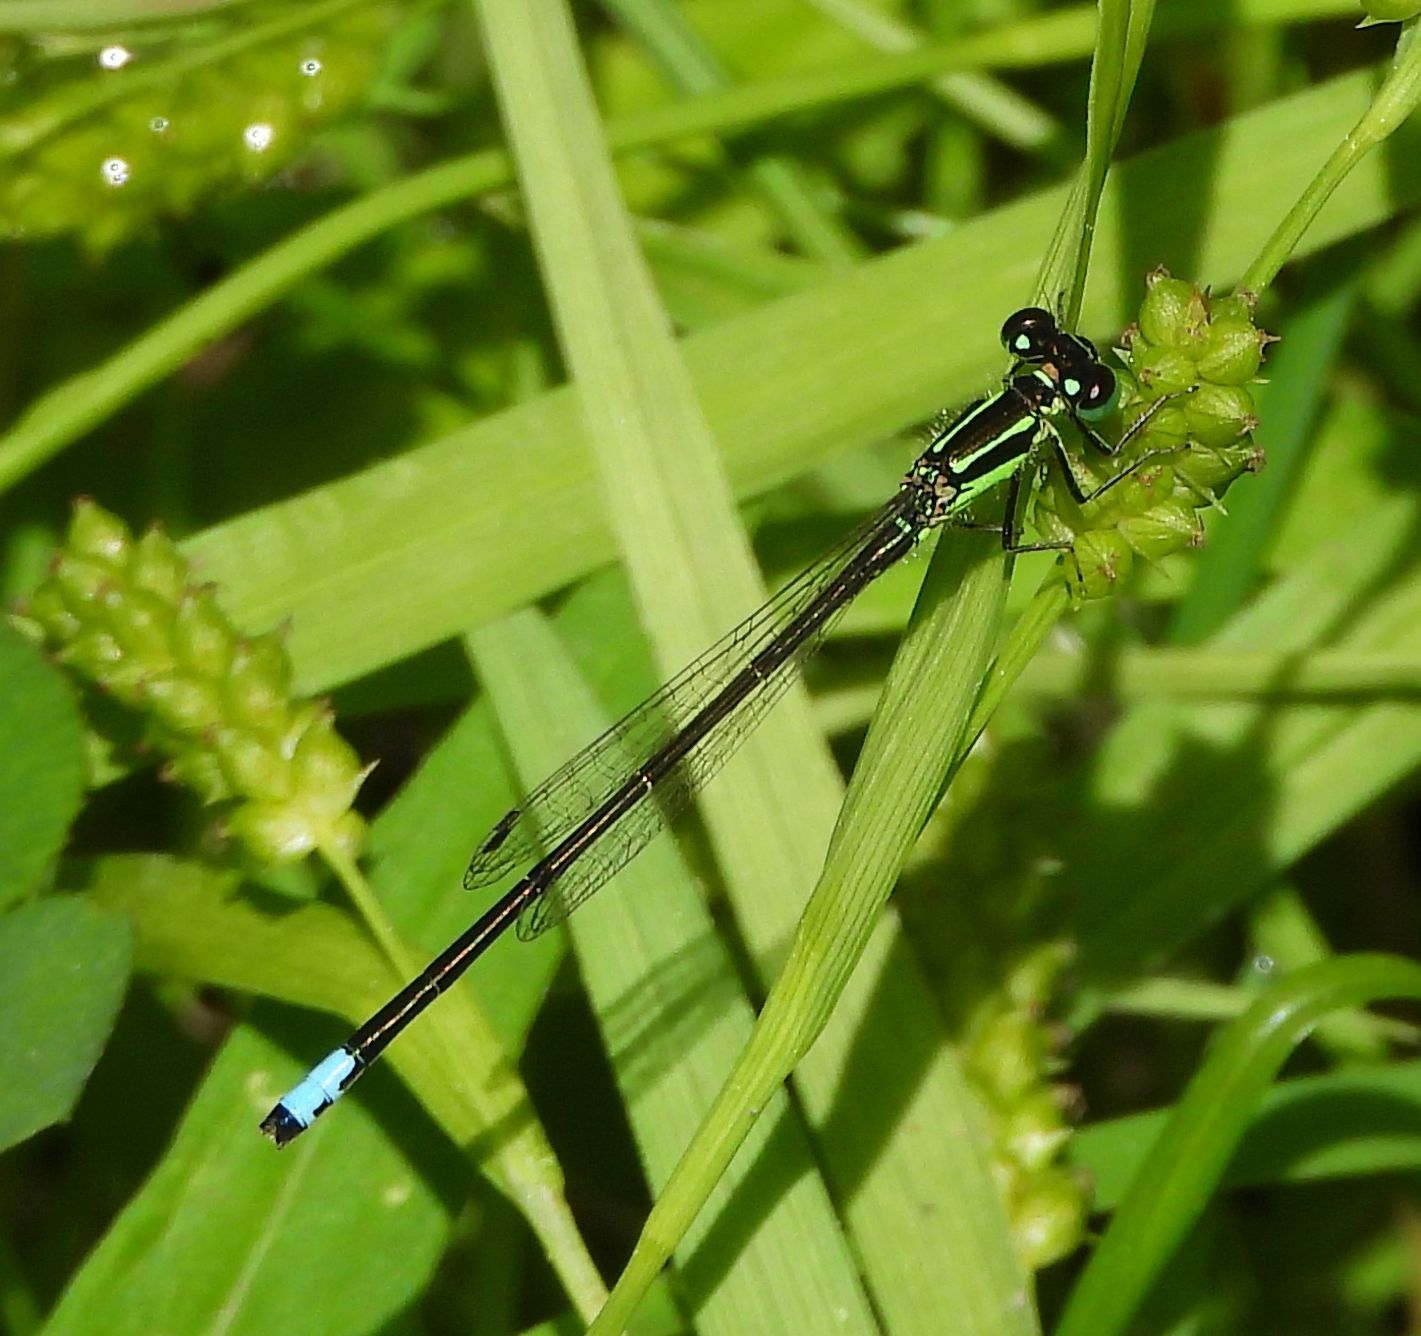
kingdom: Animalia
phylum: Arthropoda
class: Insecta
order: Odonata
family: Coenagrionidae
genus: Ischnura
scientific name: Ischnura verticalis
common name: Eastern forktail
